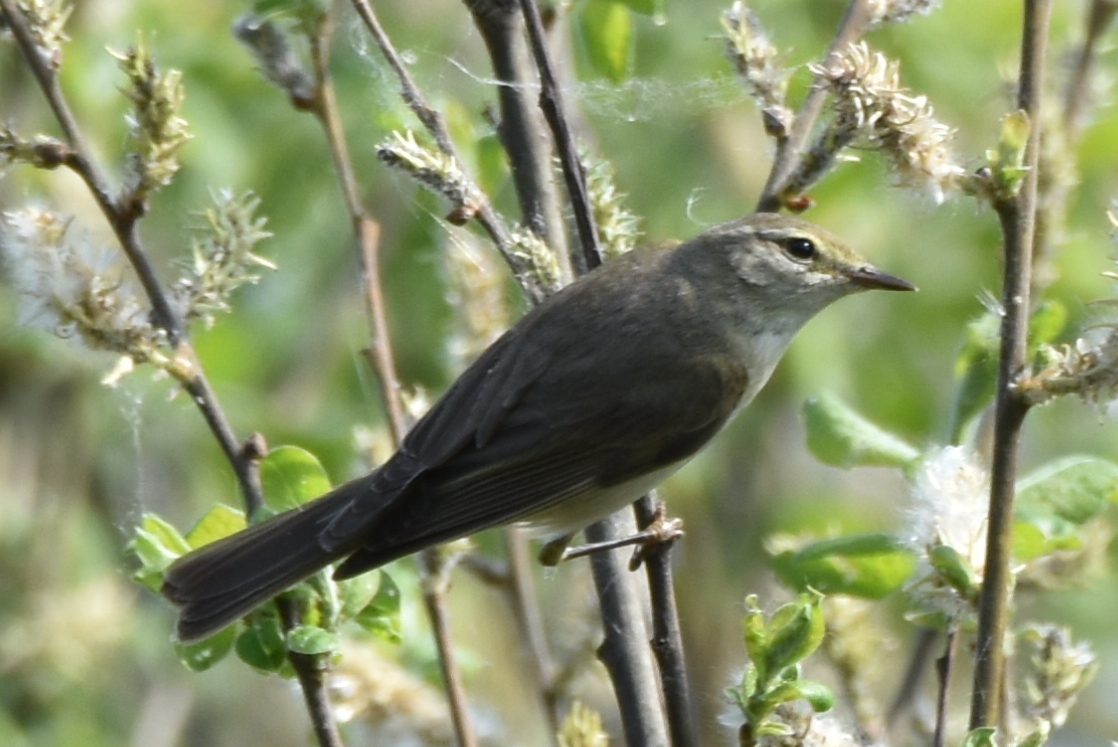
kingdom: Animalia
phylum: Chordata
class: Aves
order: Passeriformes
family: Phylloscopidae
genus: Phylloscopus
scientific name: Phylloscopus trochilus
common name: Willow warbler
